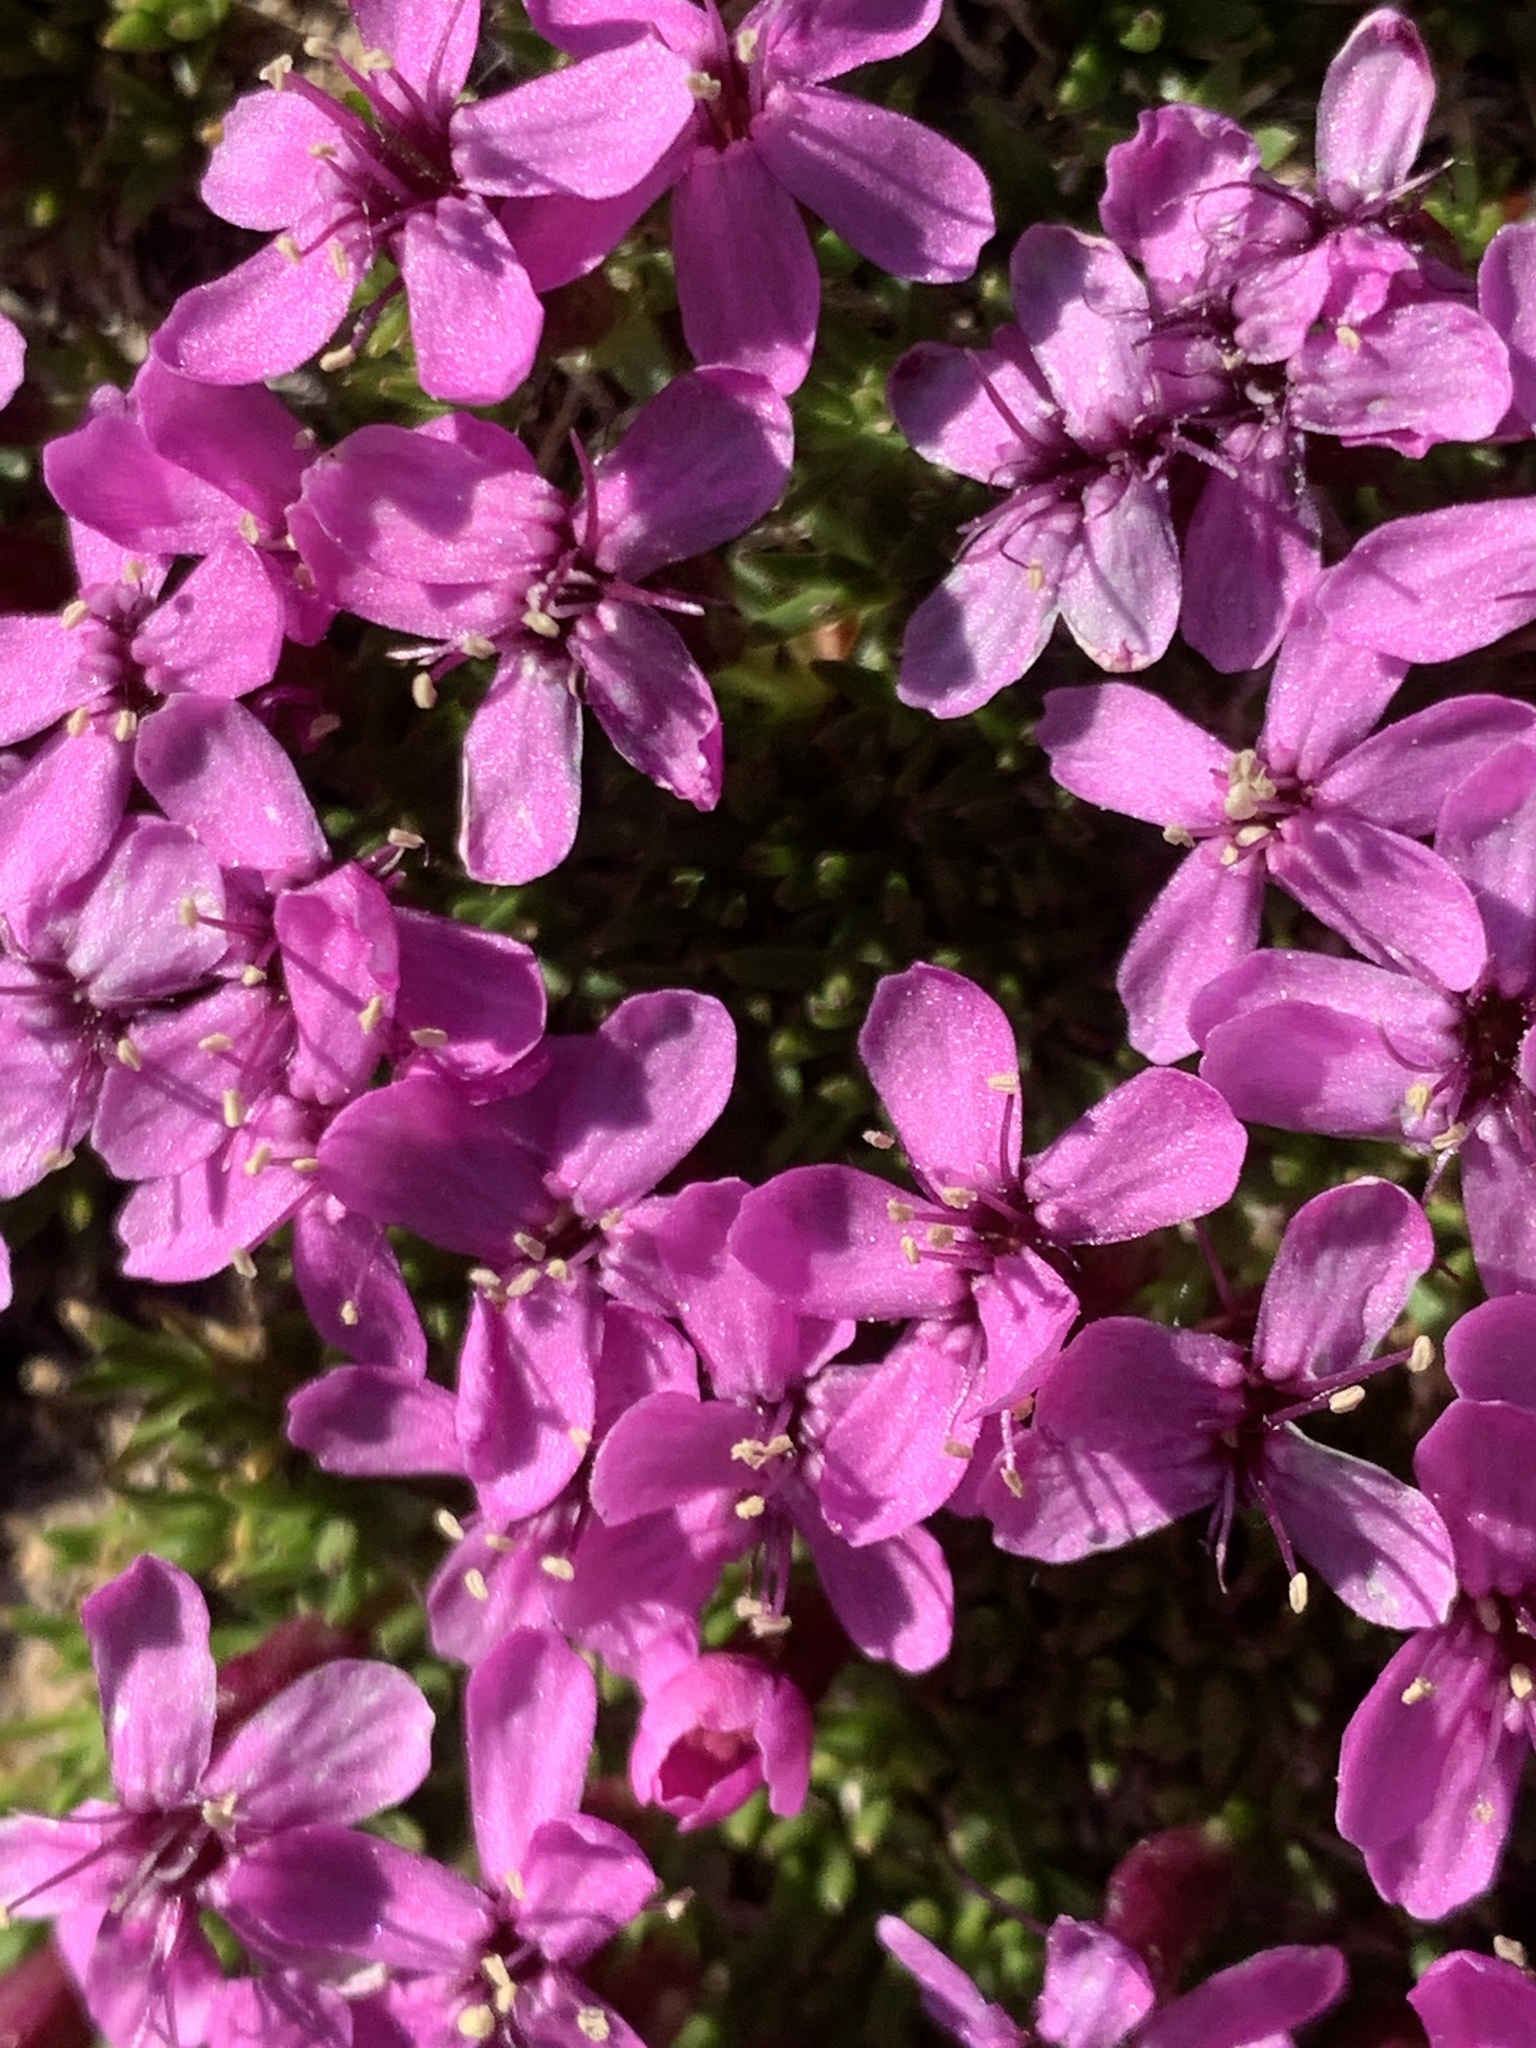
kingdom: Plantae
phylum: Tracheophyta
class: Magnoliopsida
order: Caryophyllales
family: Caryophyllaceae
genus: Silene
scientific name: Silene acaulis
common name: Moss campion
